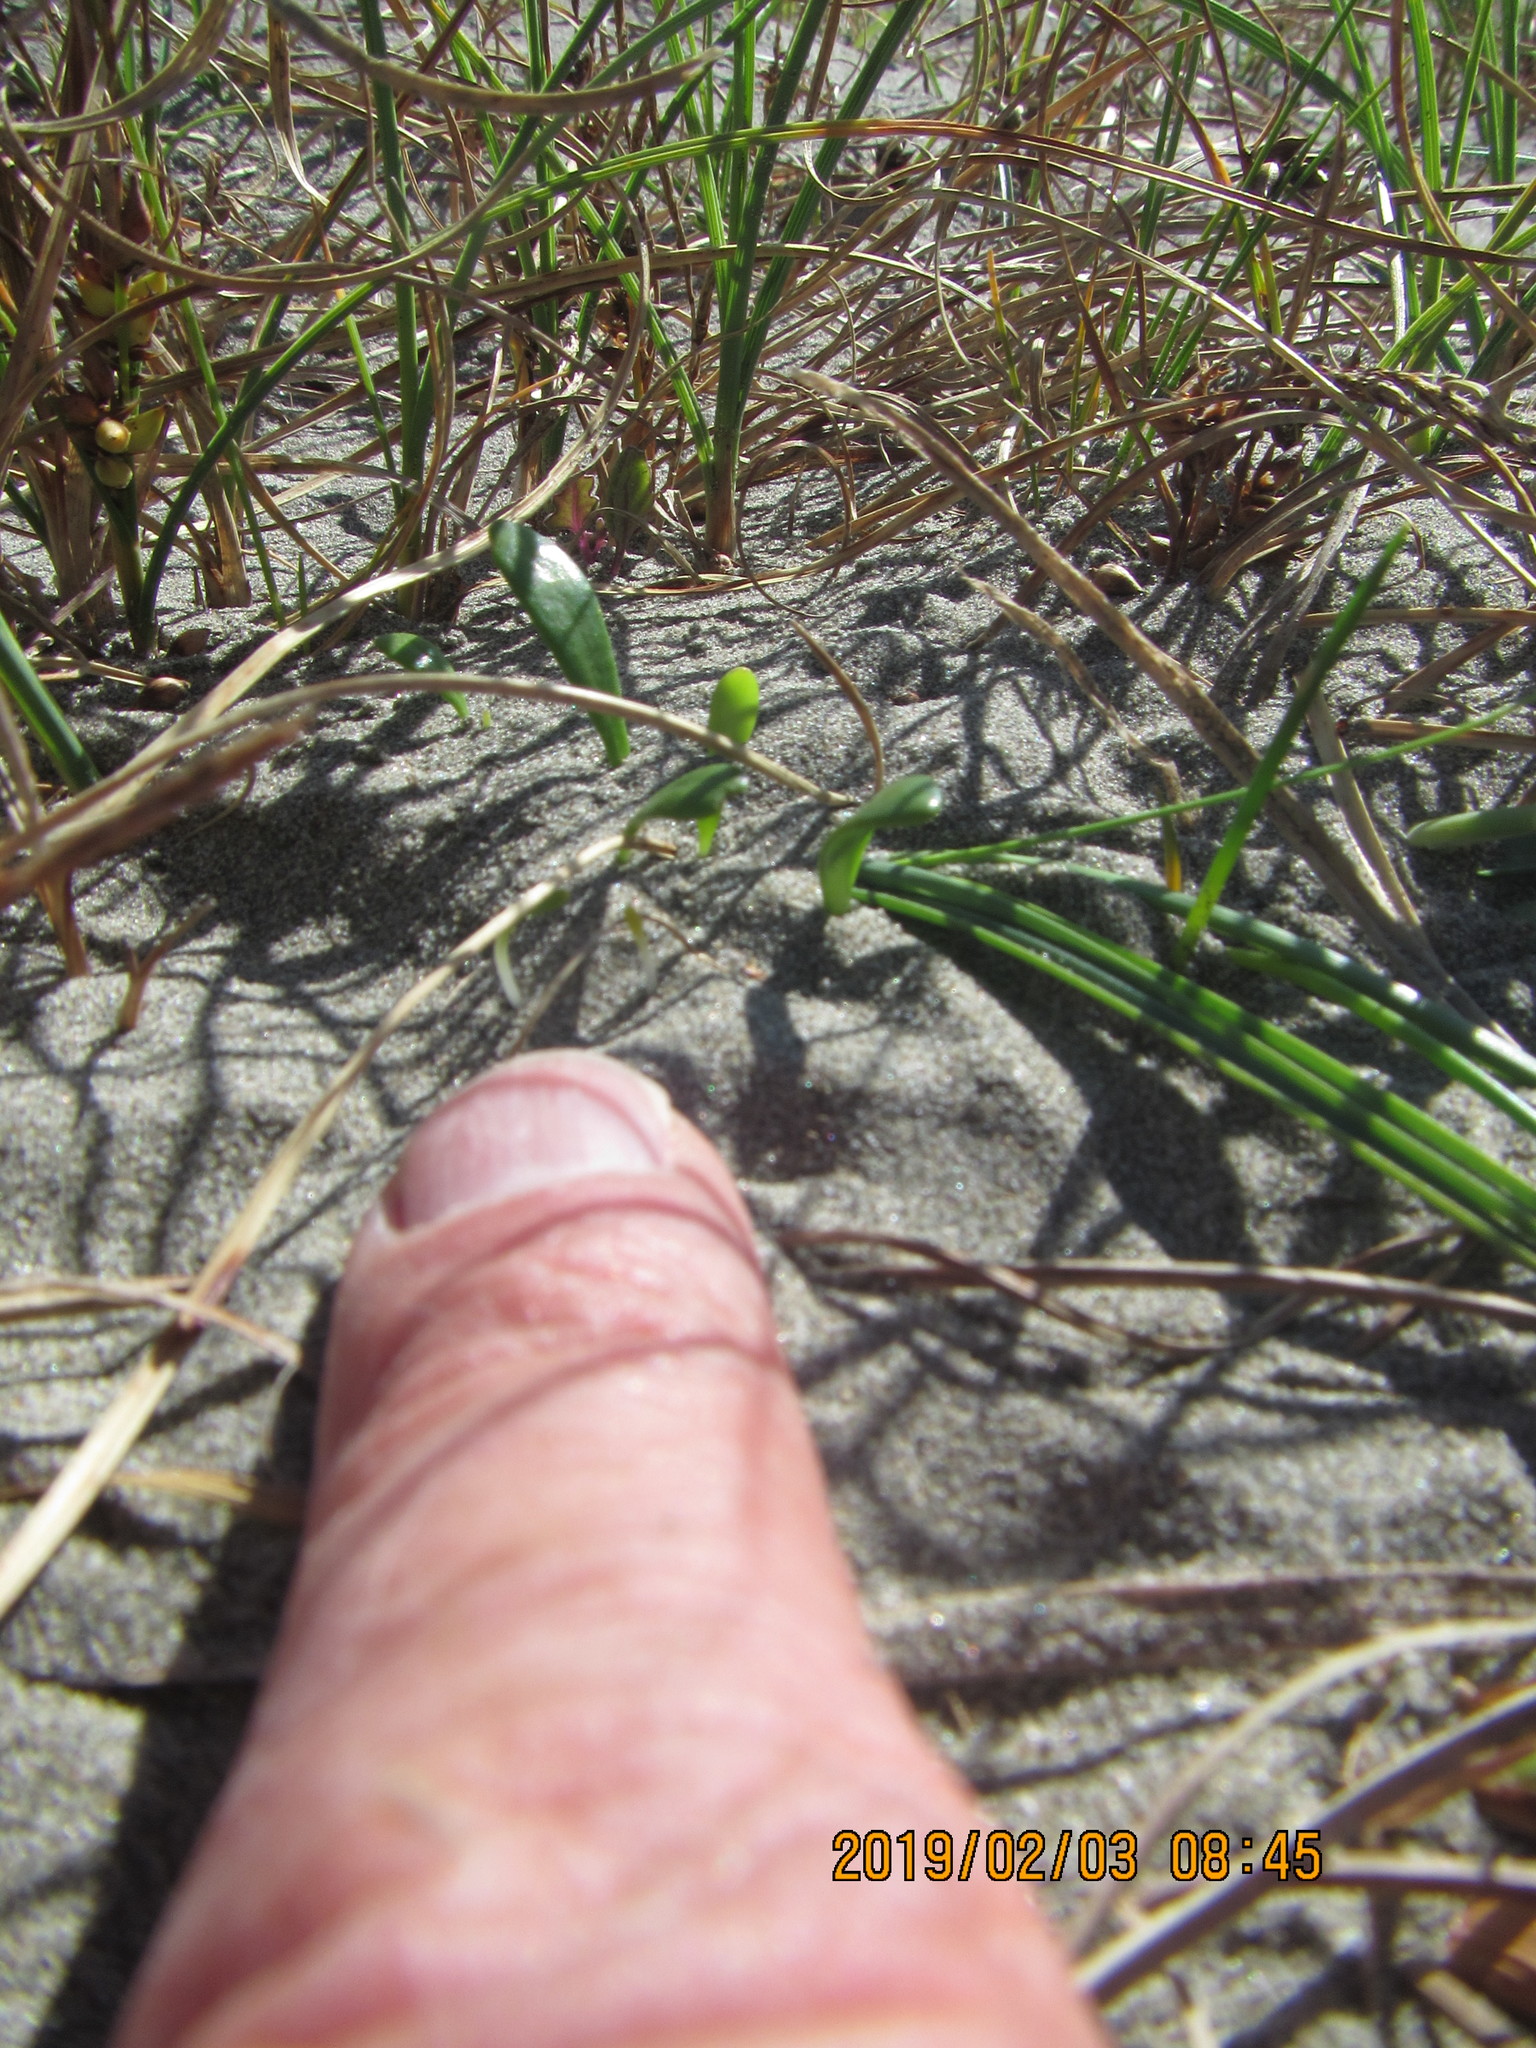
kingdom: Plantae
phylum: Tracheophyta
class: Magnoliopsida
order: Asterales
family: Goodeniaceae
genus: Goodenia
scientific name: Goodenia radicans
